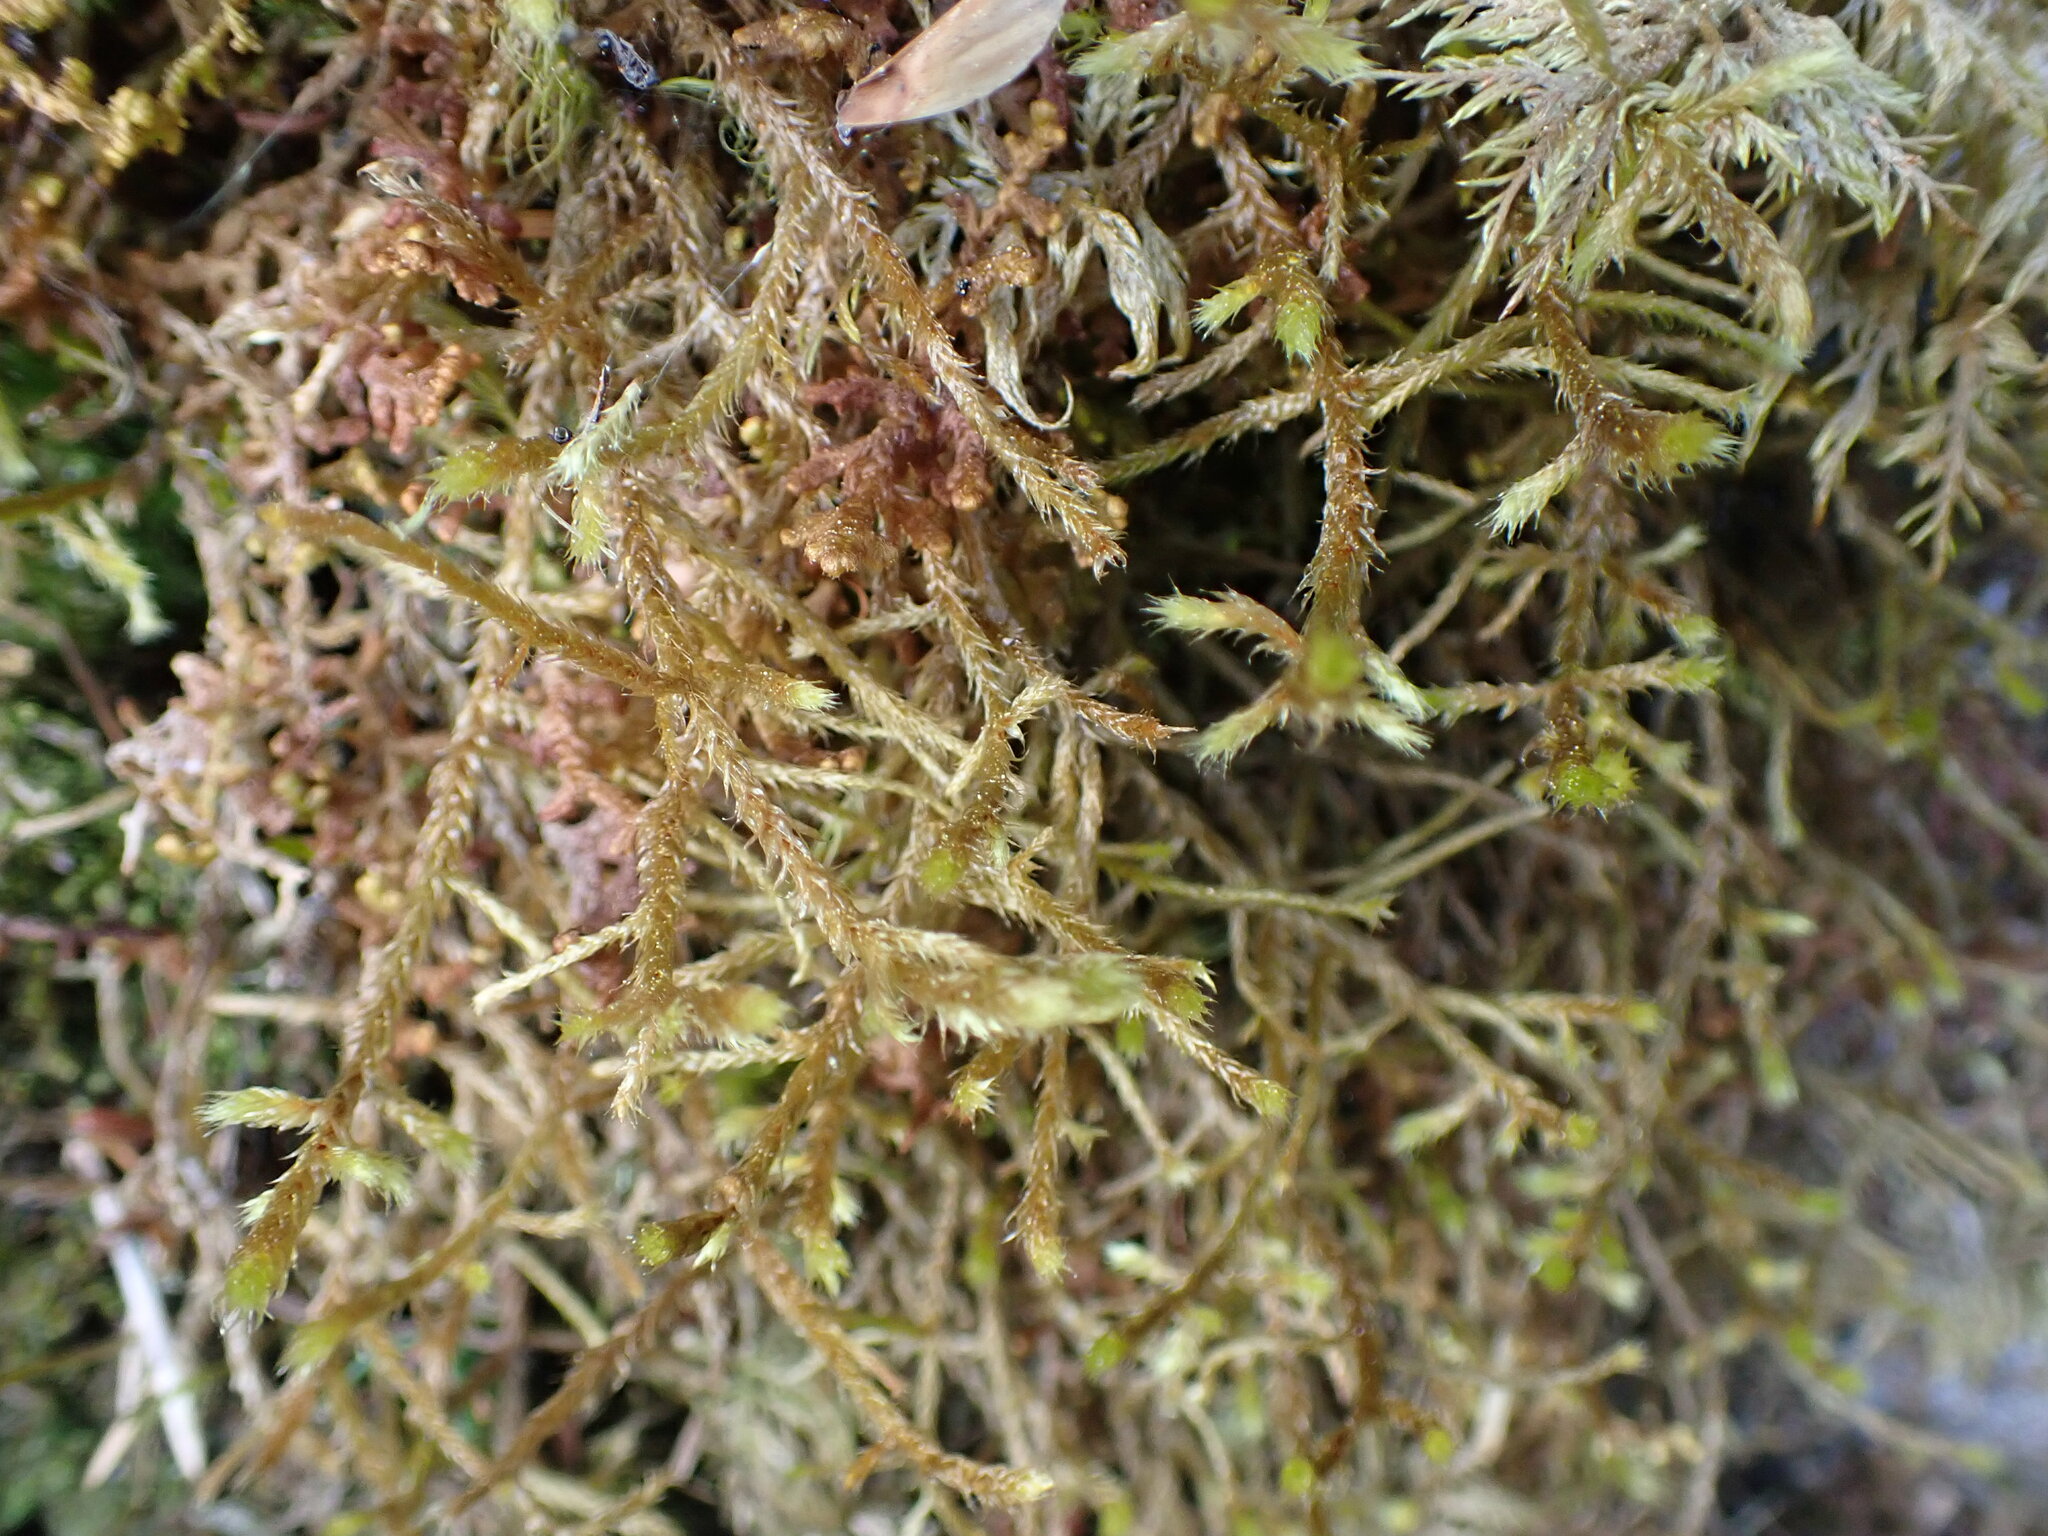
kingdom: Plantae
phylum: Bryophyta
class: Bryopsida
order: Hypnales
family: Antitrichiaceae
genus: Antitrichia
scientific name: Antitrichia curtipendula
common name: Pendulous wing-moss
